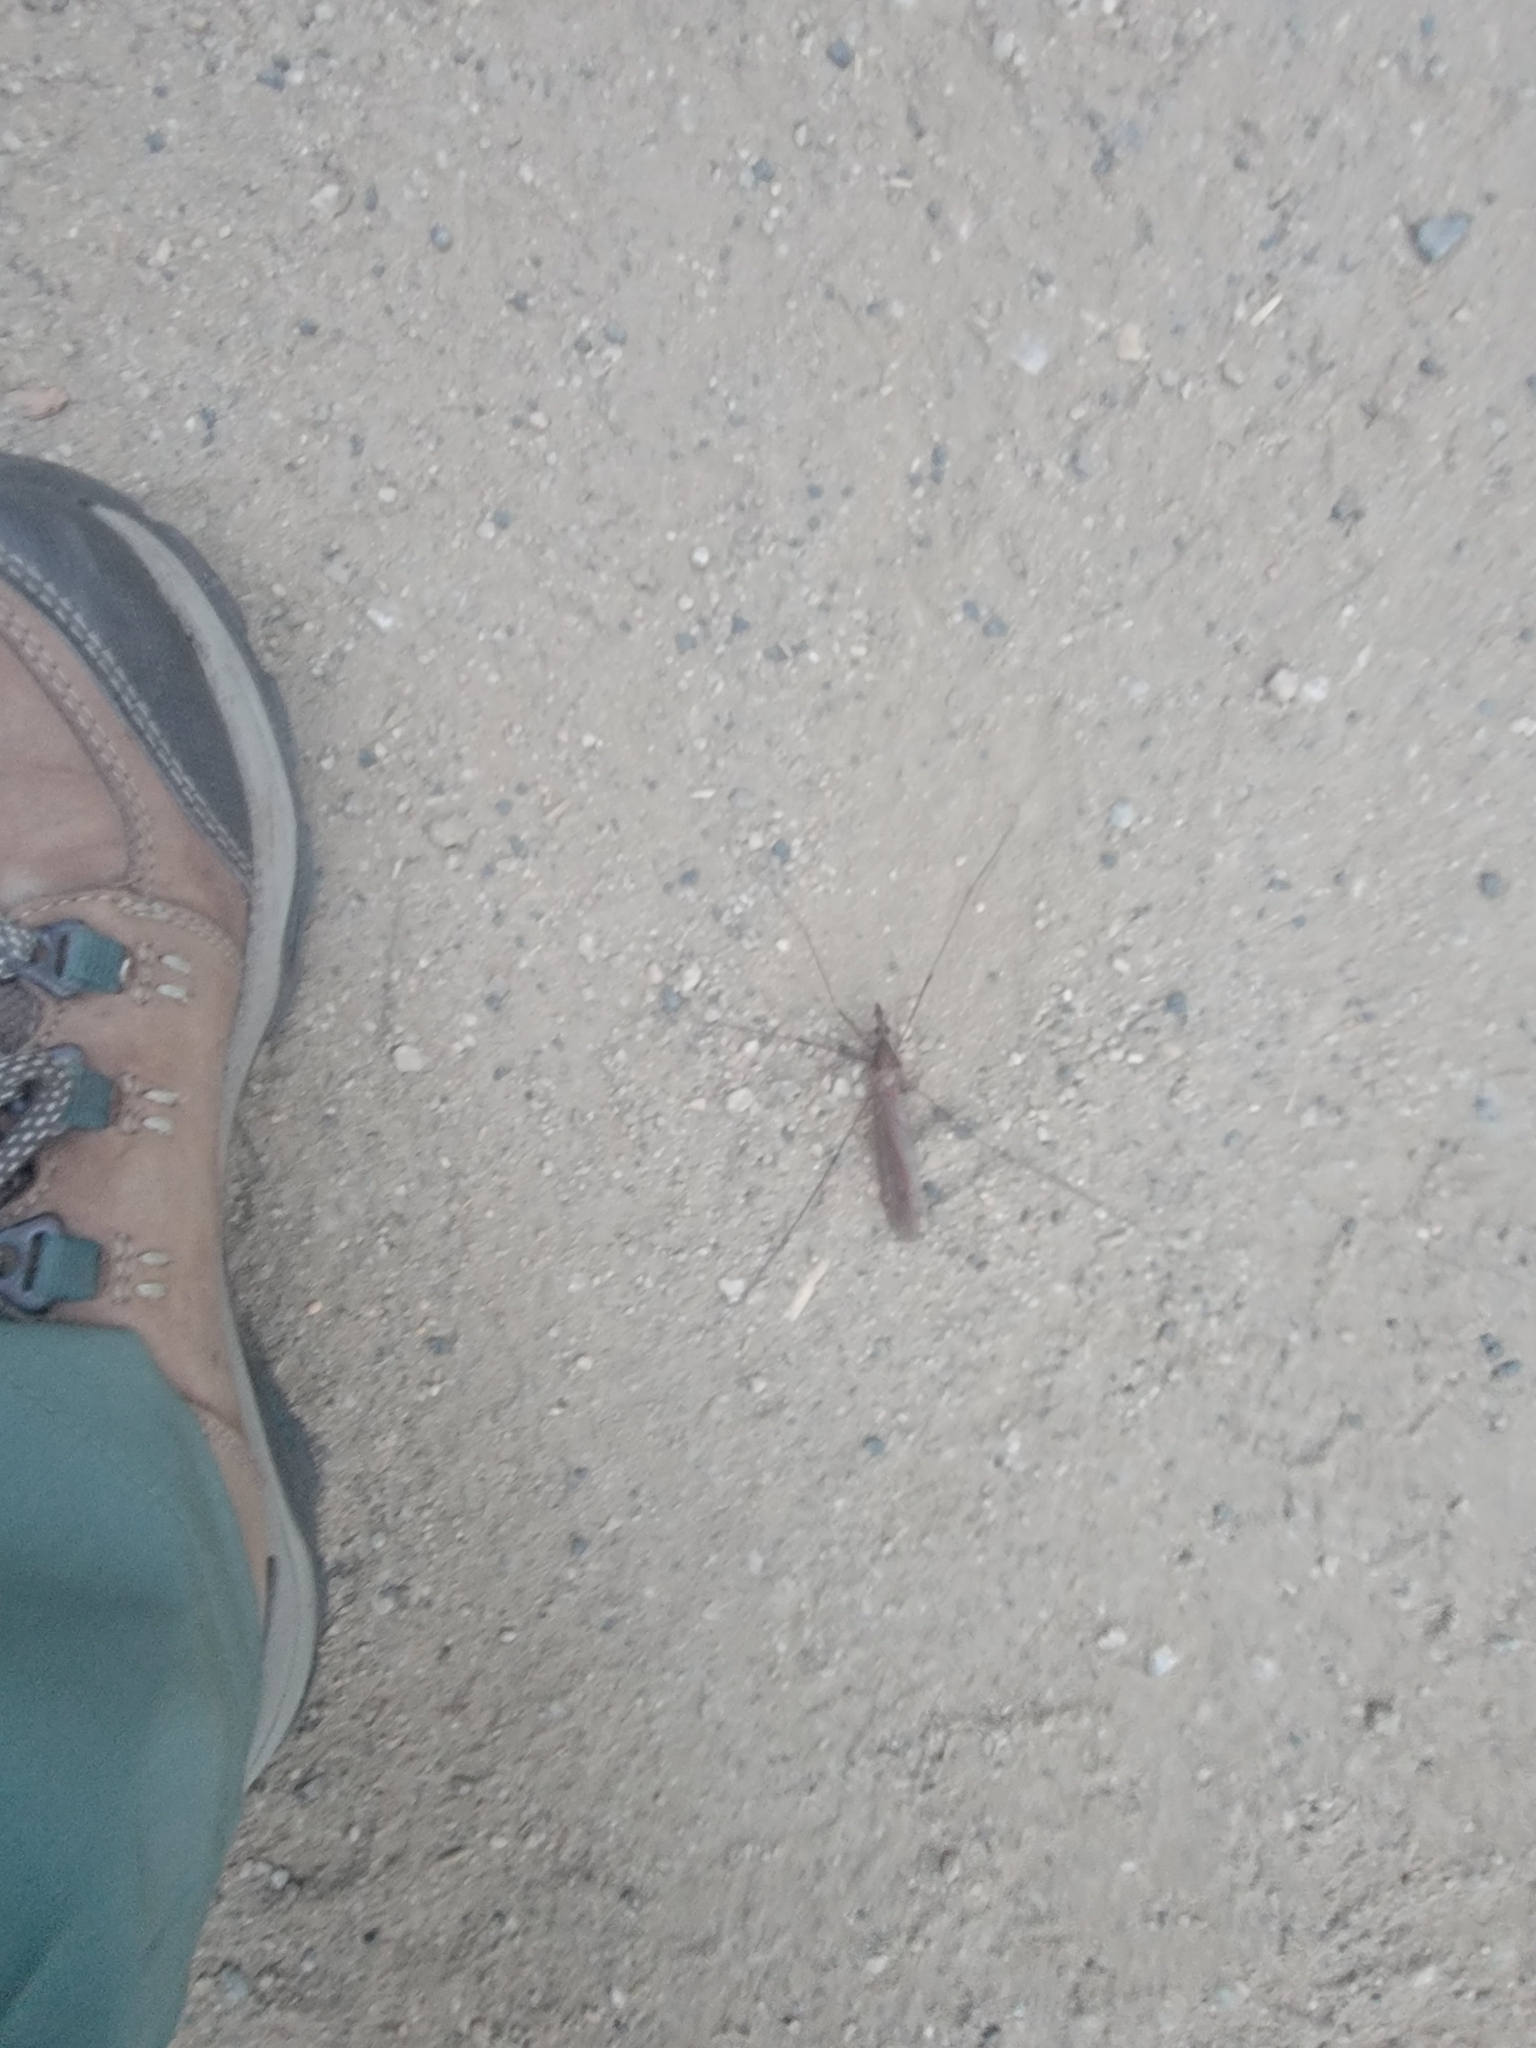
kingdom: Animalia
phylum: Arthropoda
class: Insecta
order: Diptera
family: Tipulidae
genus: Holorusia
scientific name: Holorusia hespera
